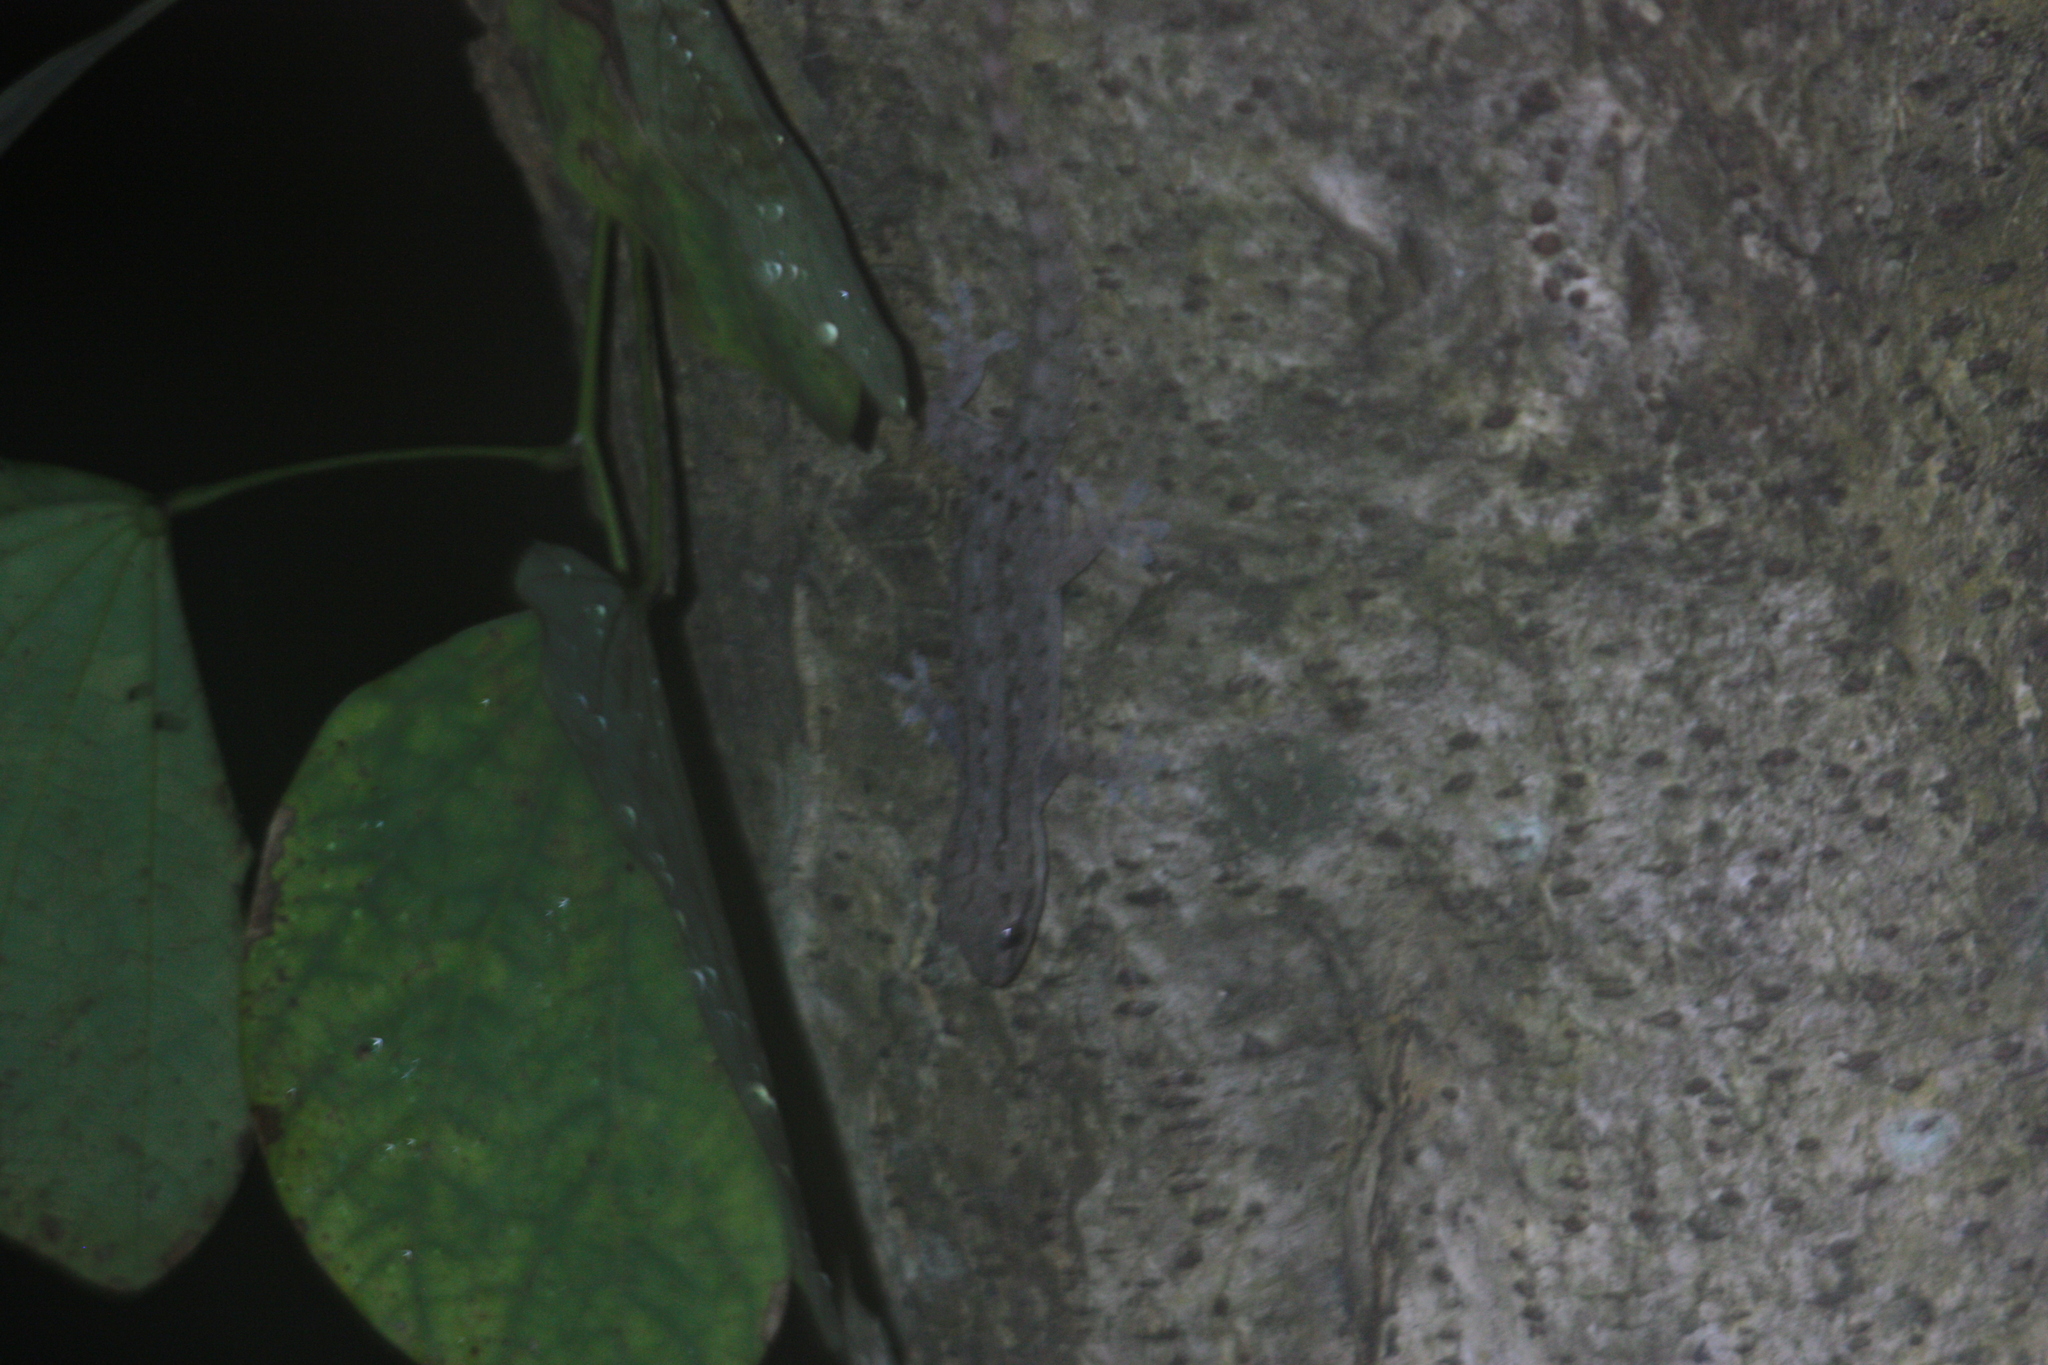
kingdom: Animalia
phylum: Chordata
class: Squamata
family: Gekkonidae
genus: Hemidactylus
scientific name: Hemidactylus frenatus
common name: Common house gecko
